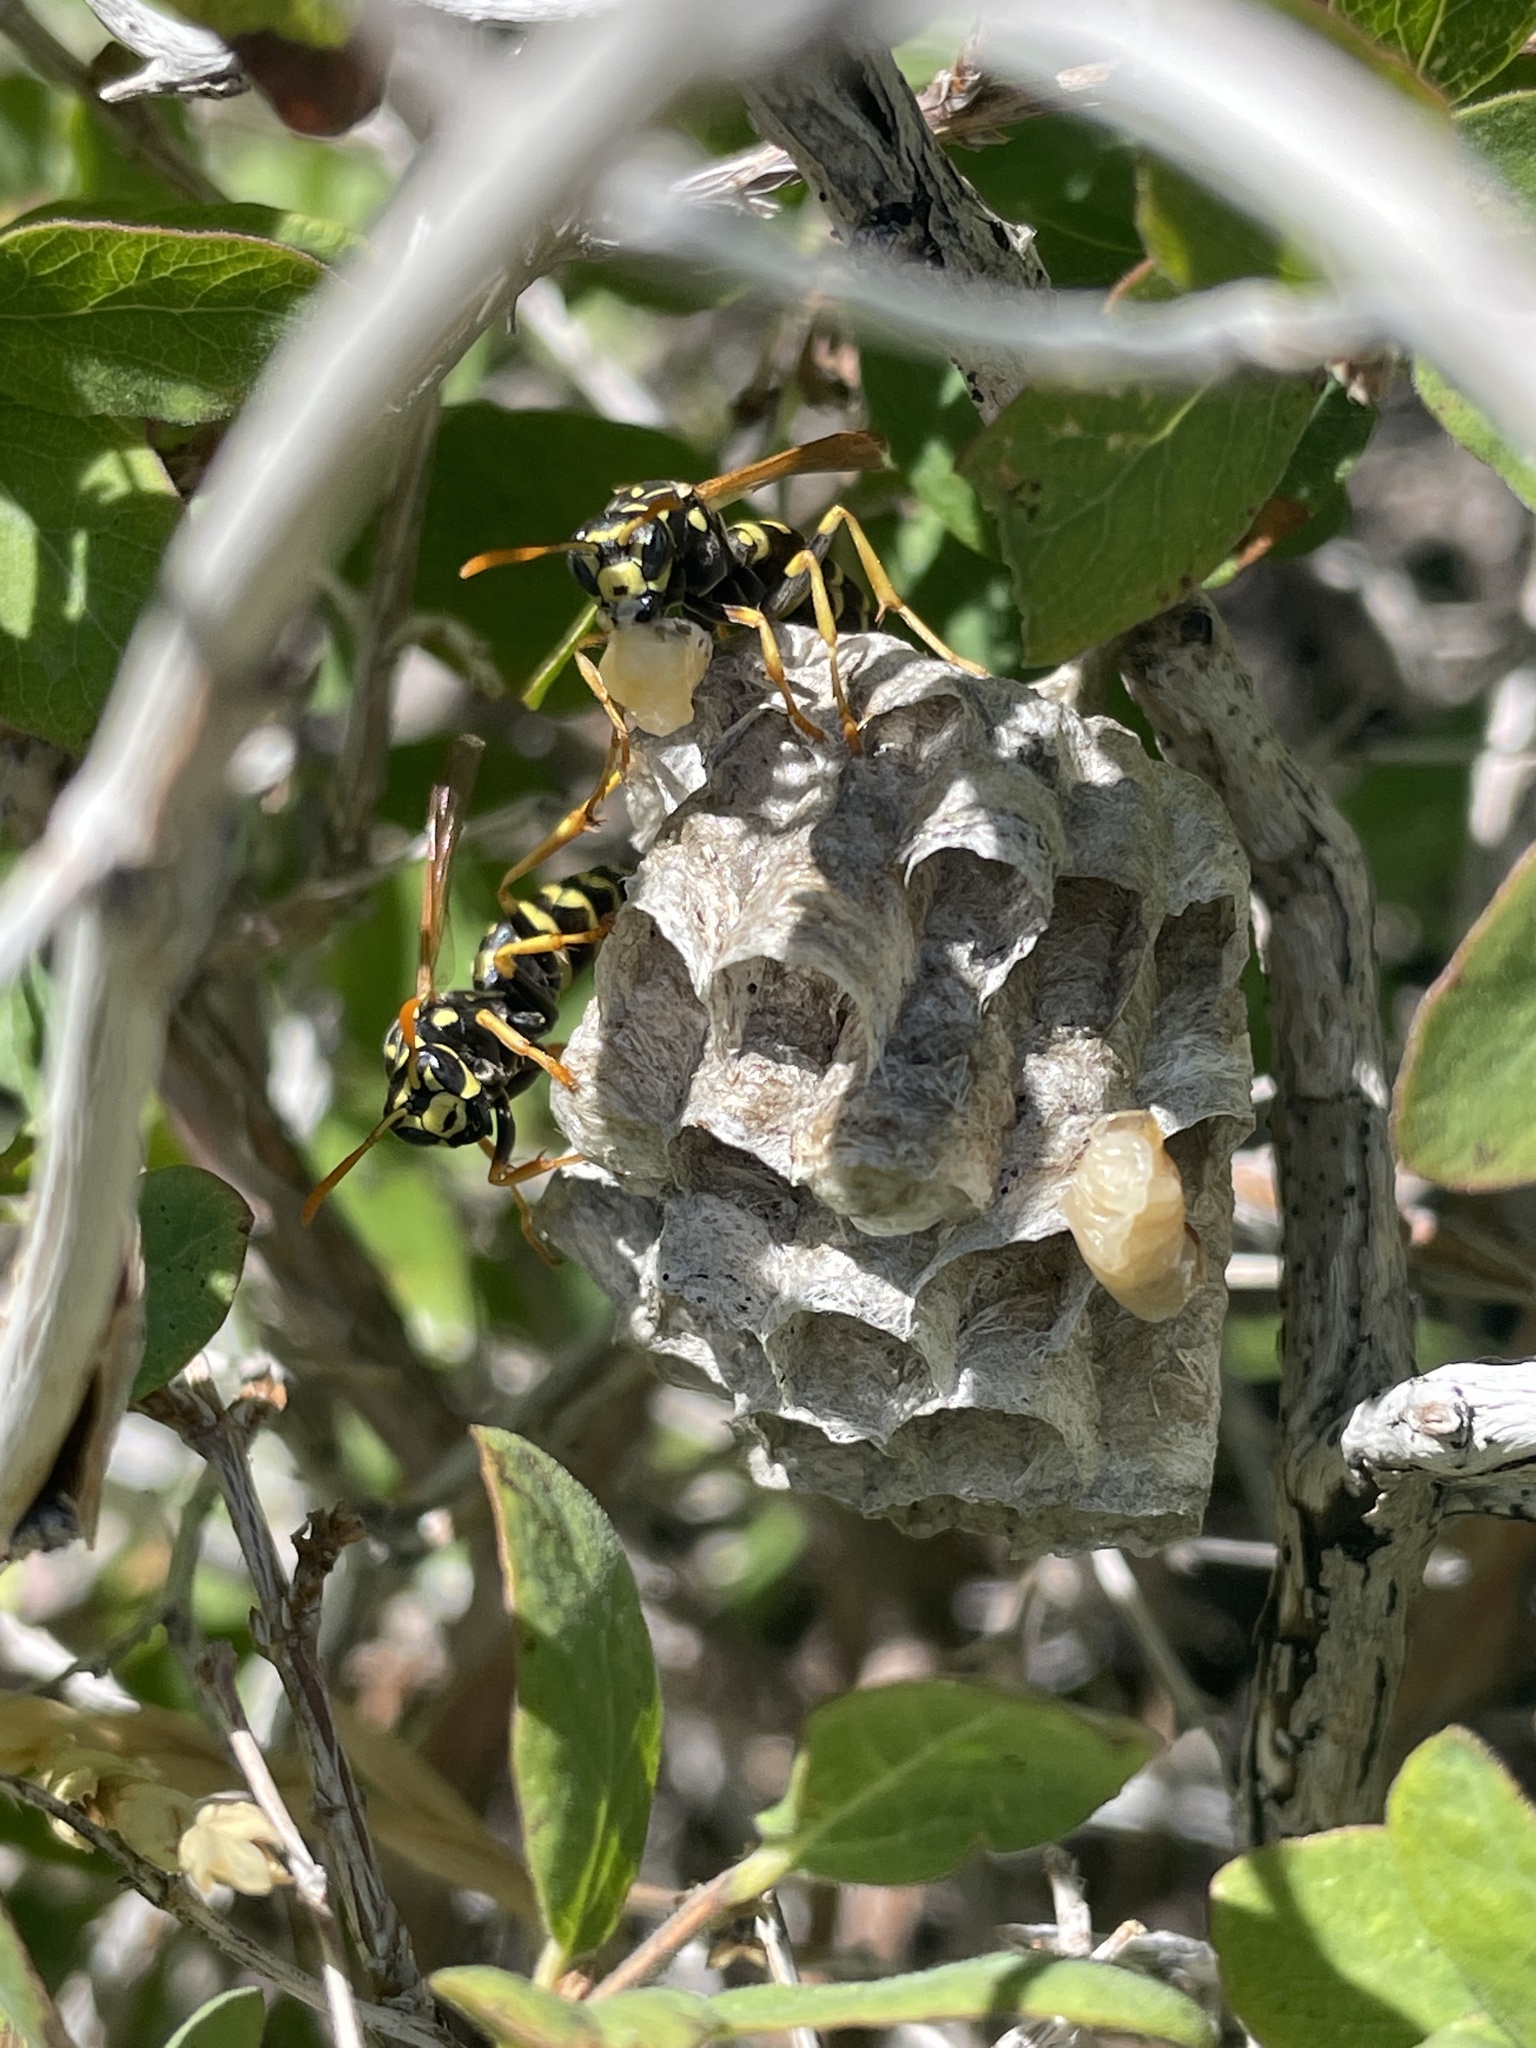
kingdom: Animalia
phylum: Arthropoda
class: Insecta
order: Hymenoptera
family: Eumenidae
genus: Polistes
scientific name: Polistes dominula
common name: Paper wasp
